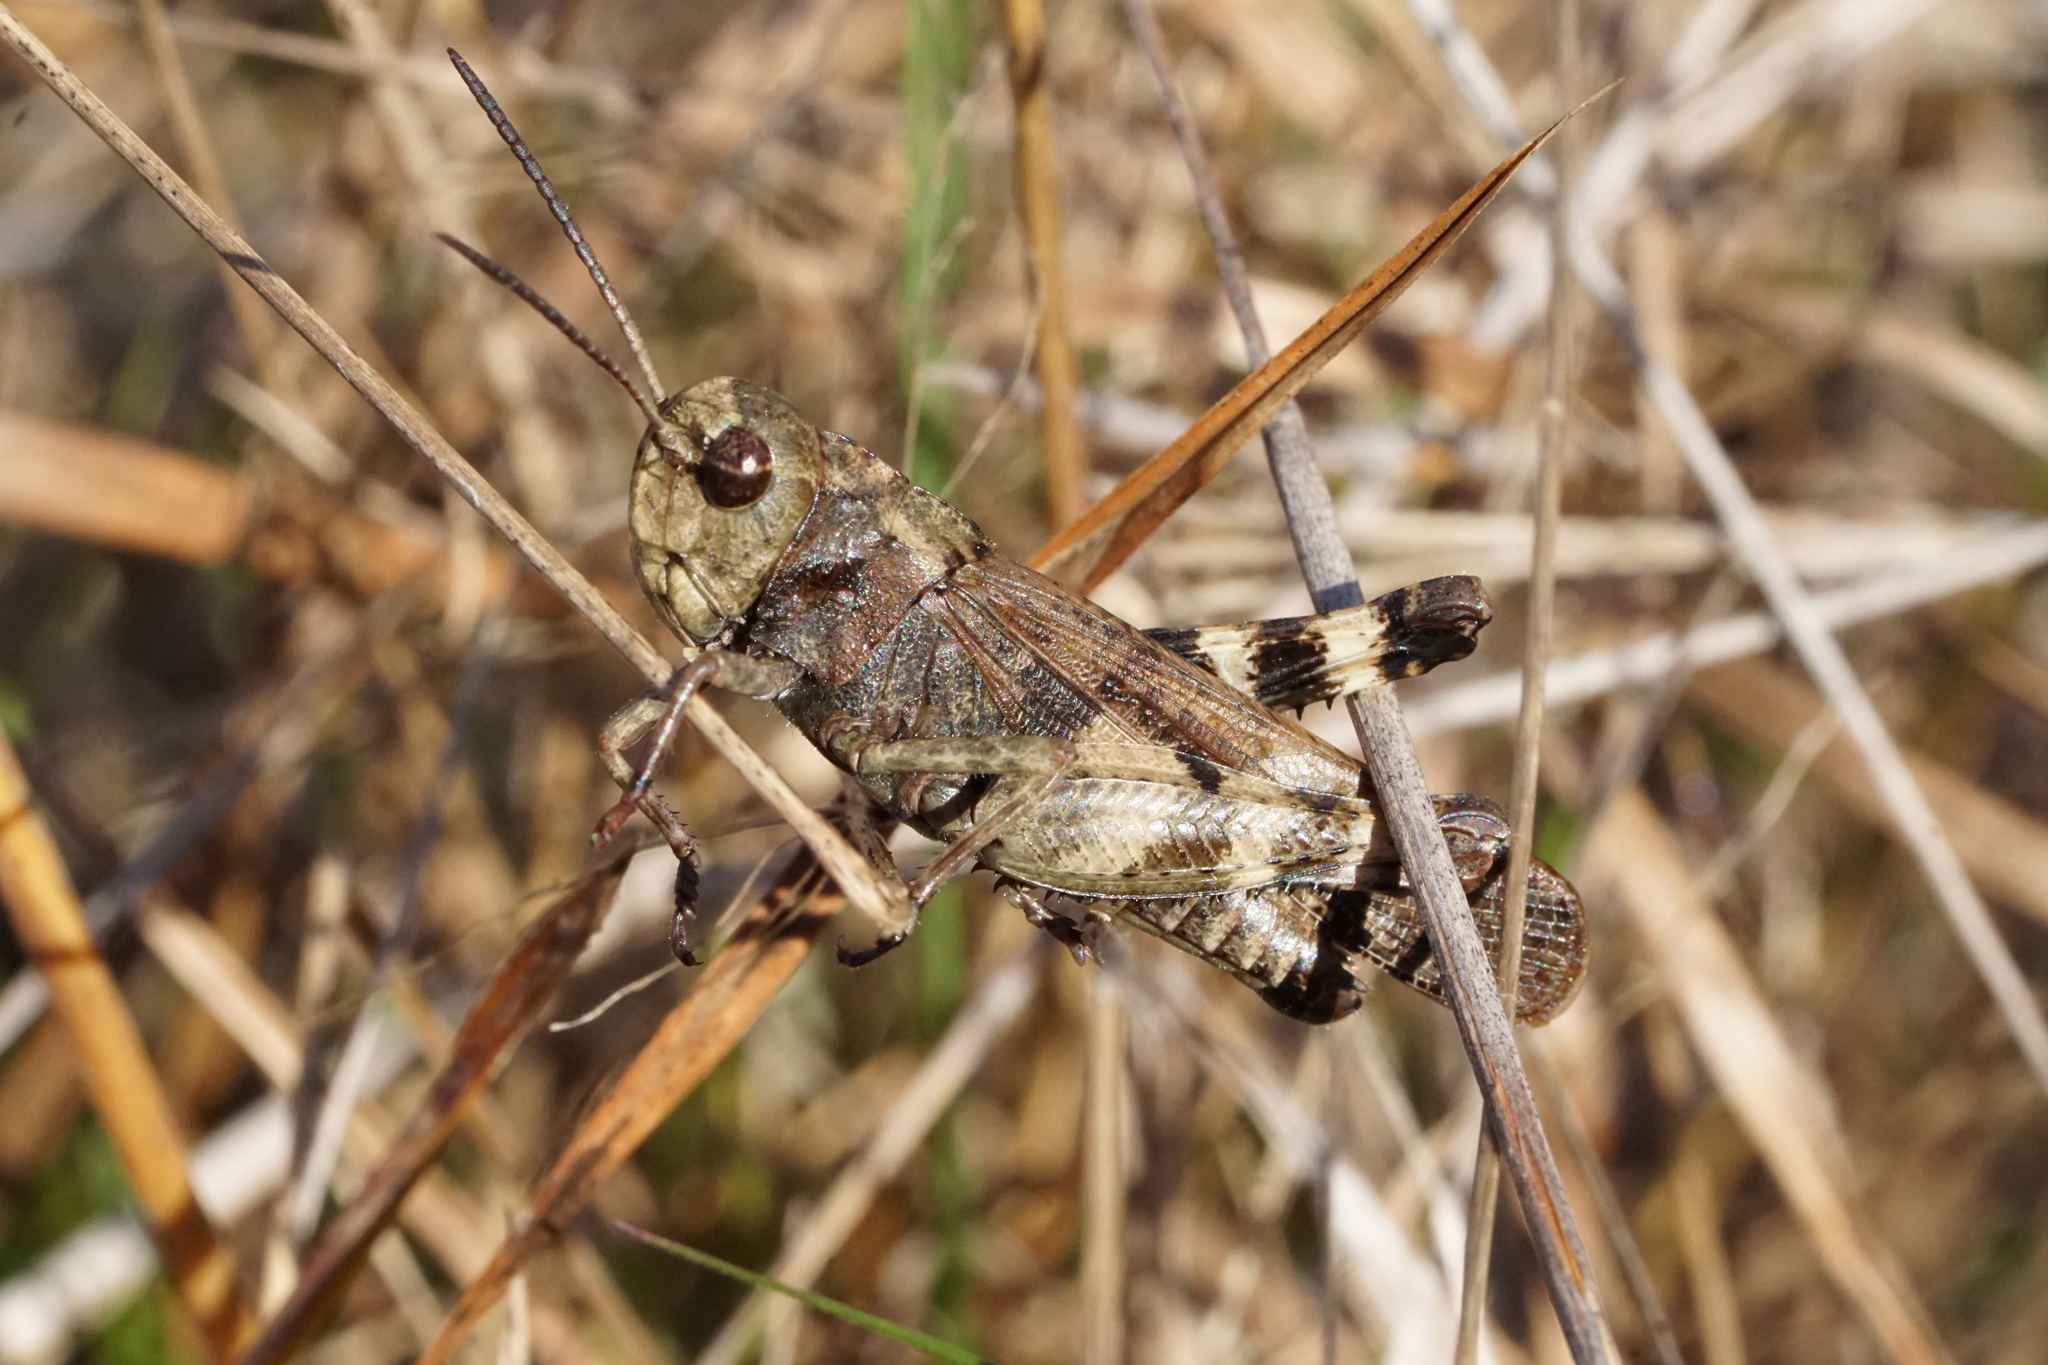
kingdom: Animalia
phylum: Arthropoda
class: Insecta
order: Orthoptera
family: Acrididae
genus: Encoptolophus
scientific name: Encoptolophus sordidus
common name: Dusky grasshopper
